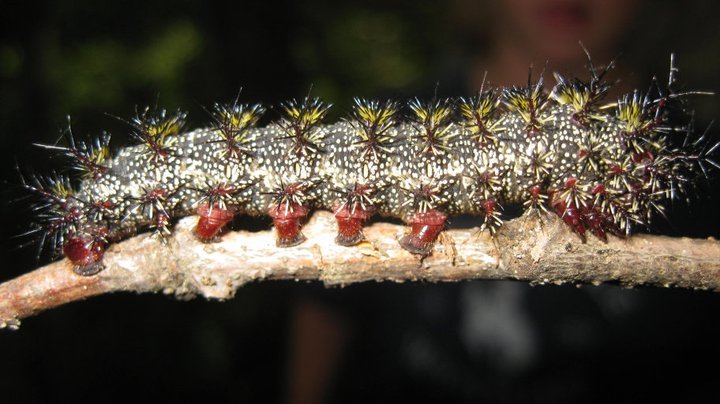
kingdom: Animalia
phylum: Arthropoda
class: Insecta
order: Lepidoptera
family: Saturniidae
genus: Hemileuca
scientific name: Hemileuca maia
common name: Eastern buckmoth
